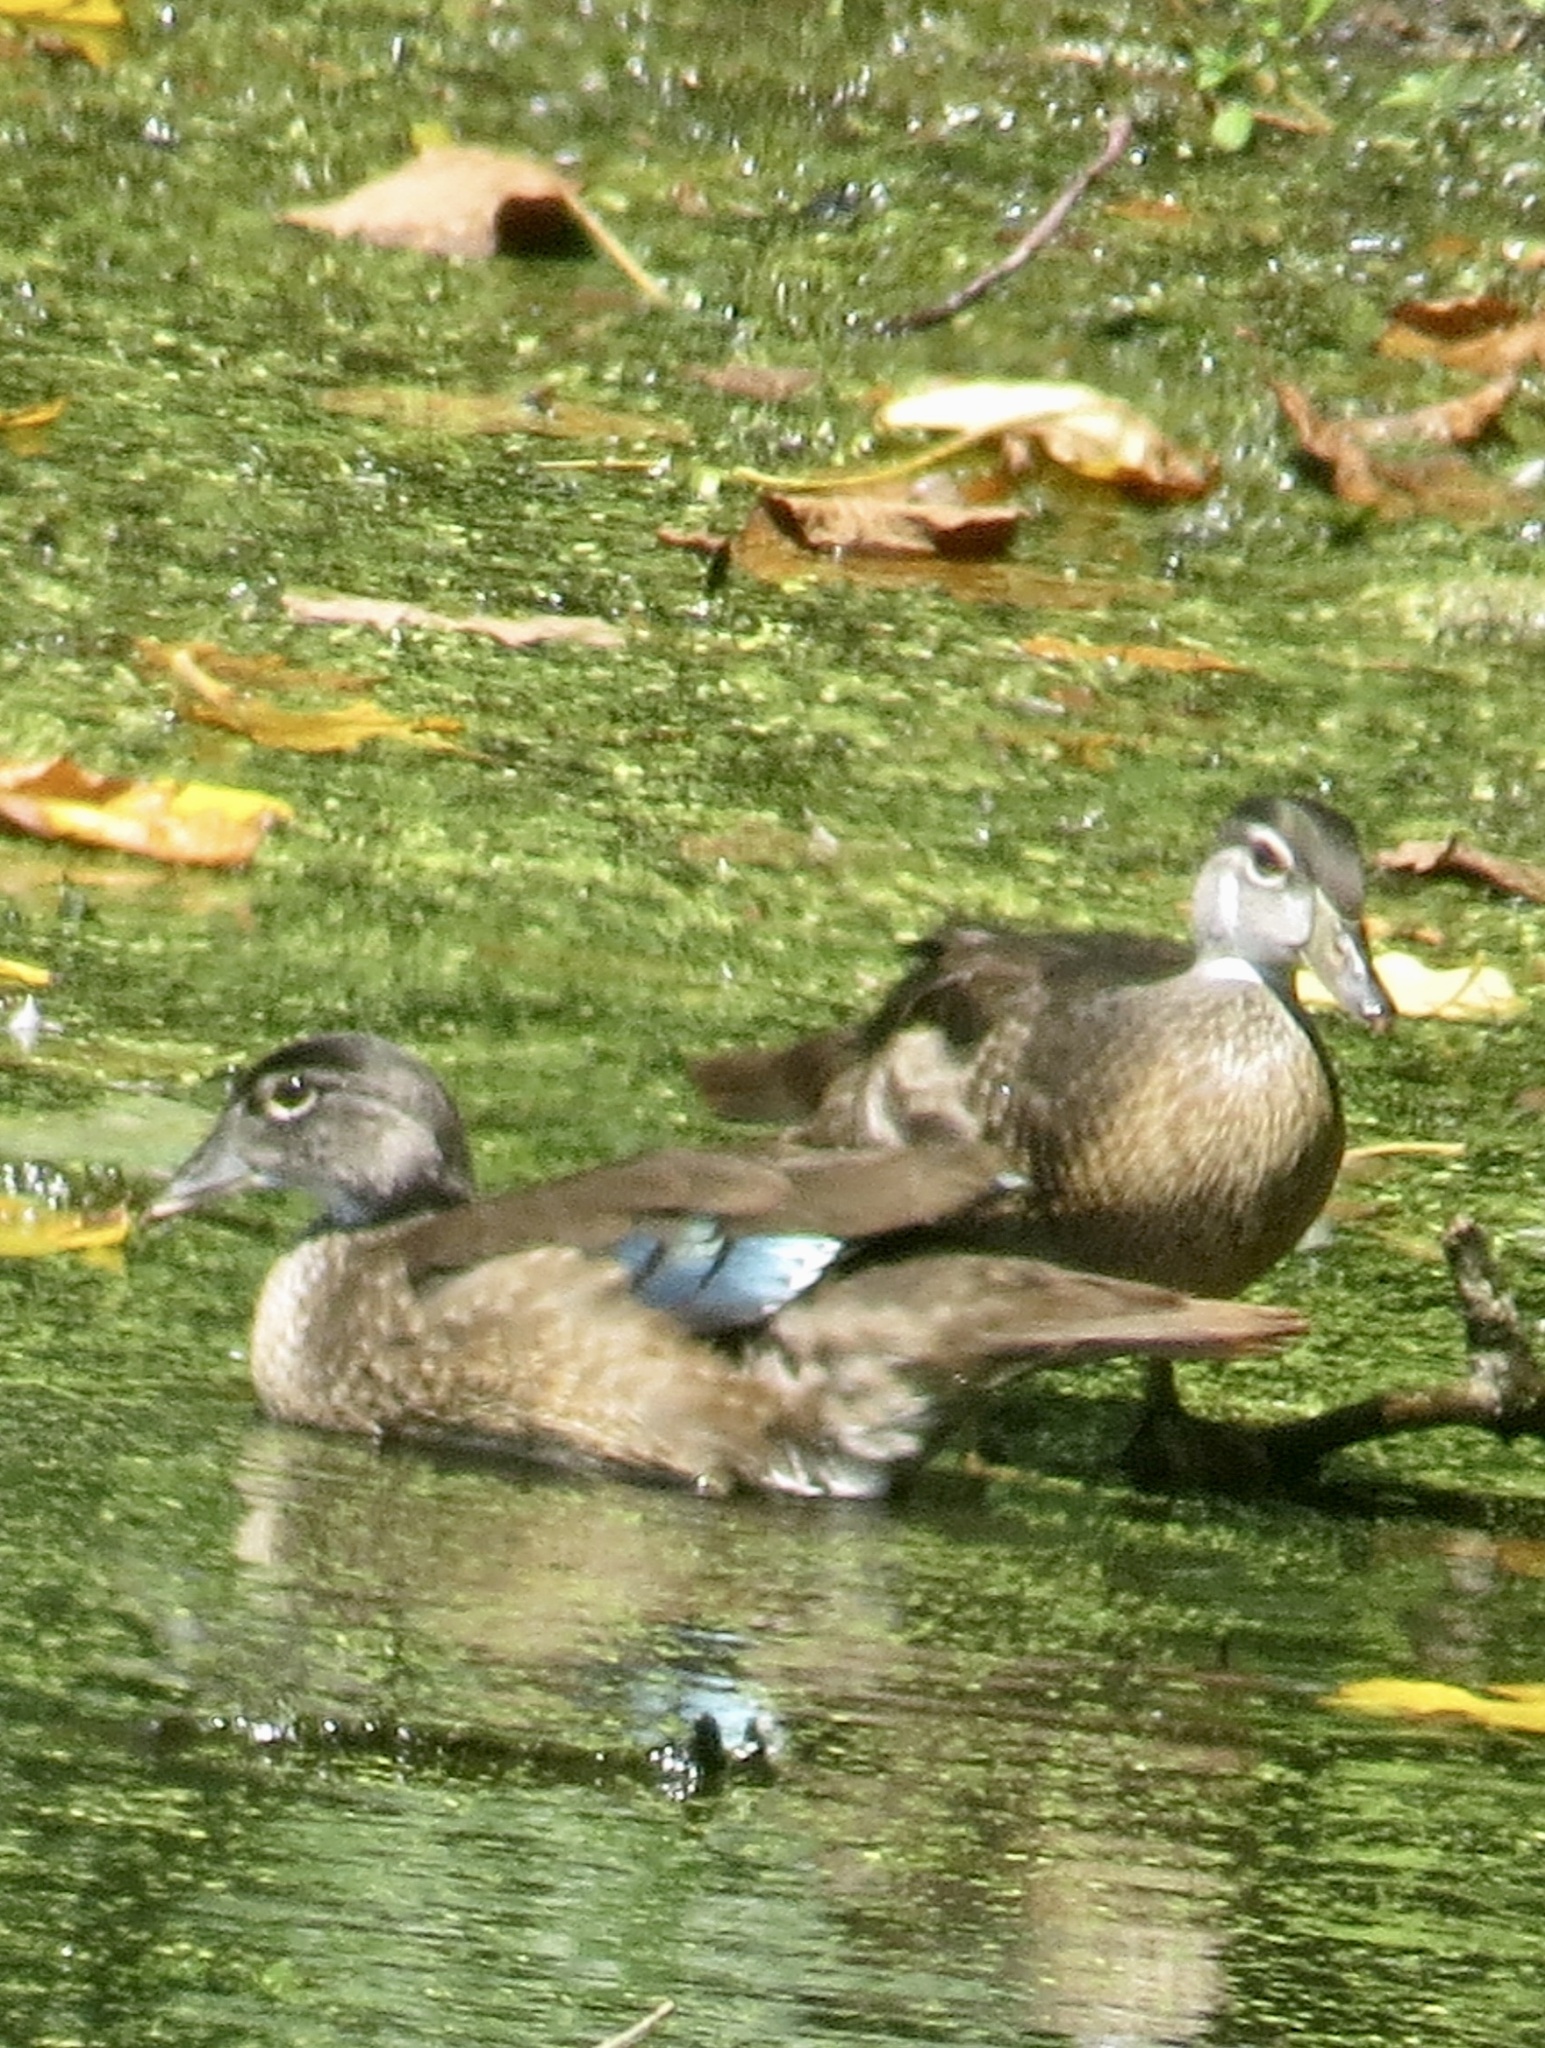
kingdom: Animalia
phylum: Chordata
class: Aves
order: Anseriformes
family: Anatidae
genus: Aix
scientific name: Aix sponsa
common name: Wood duck
